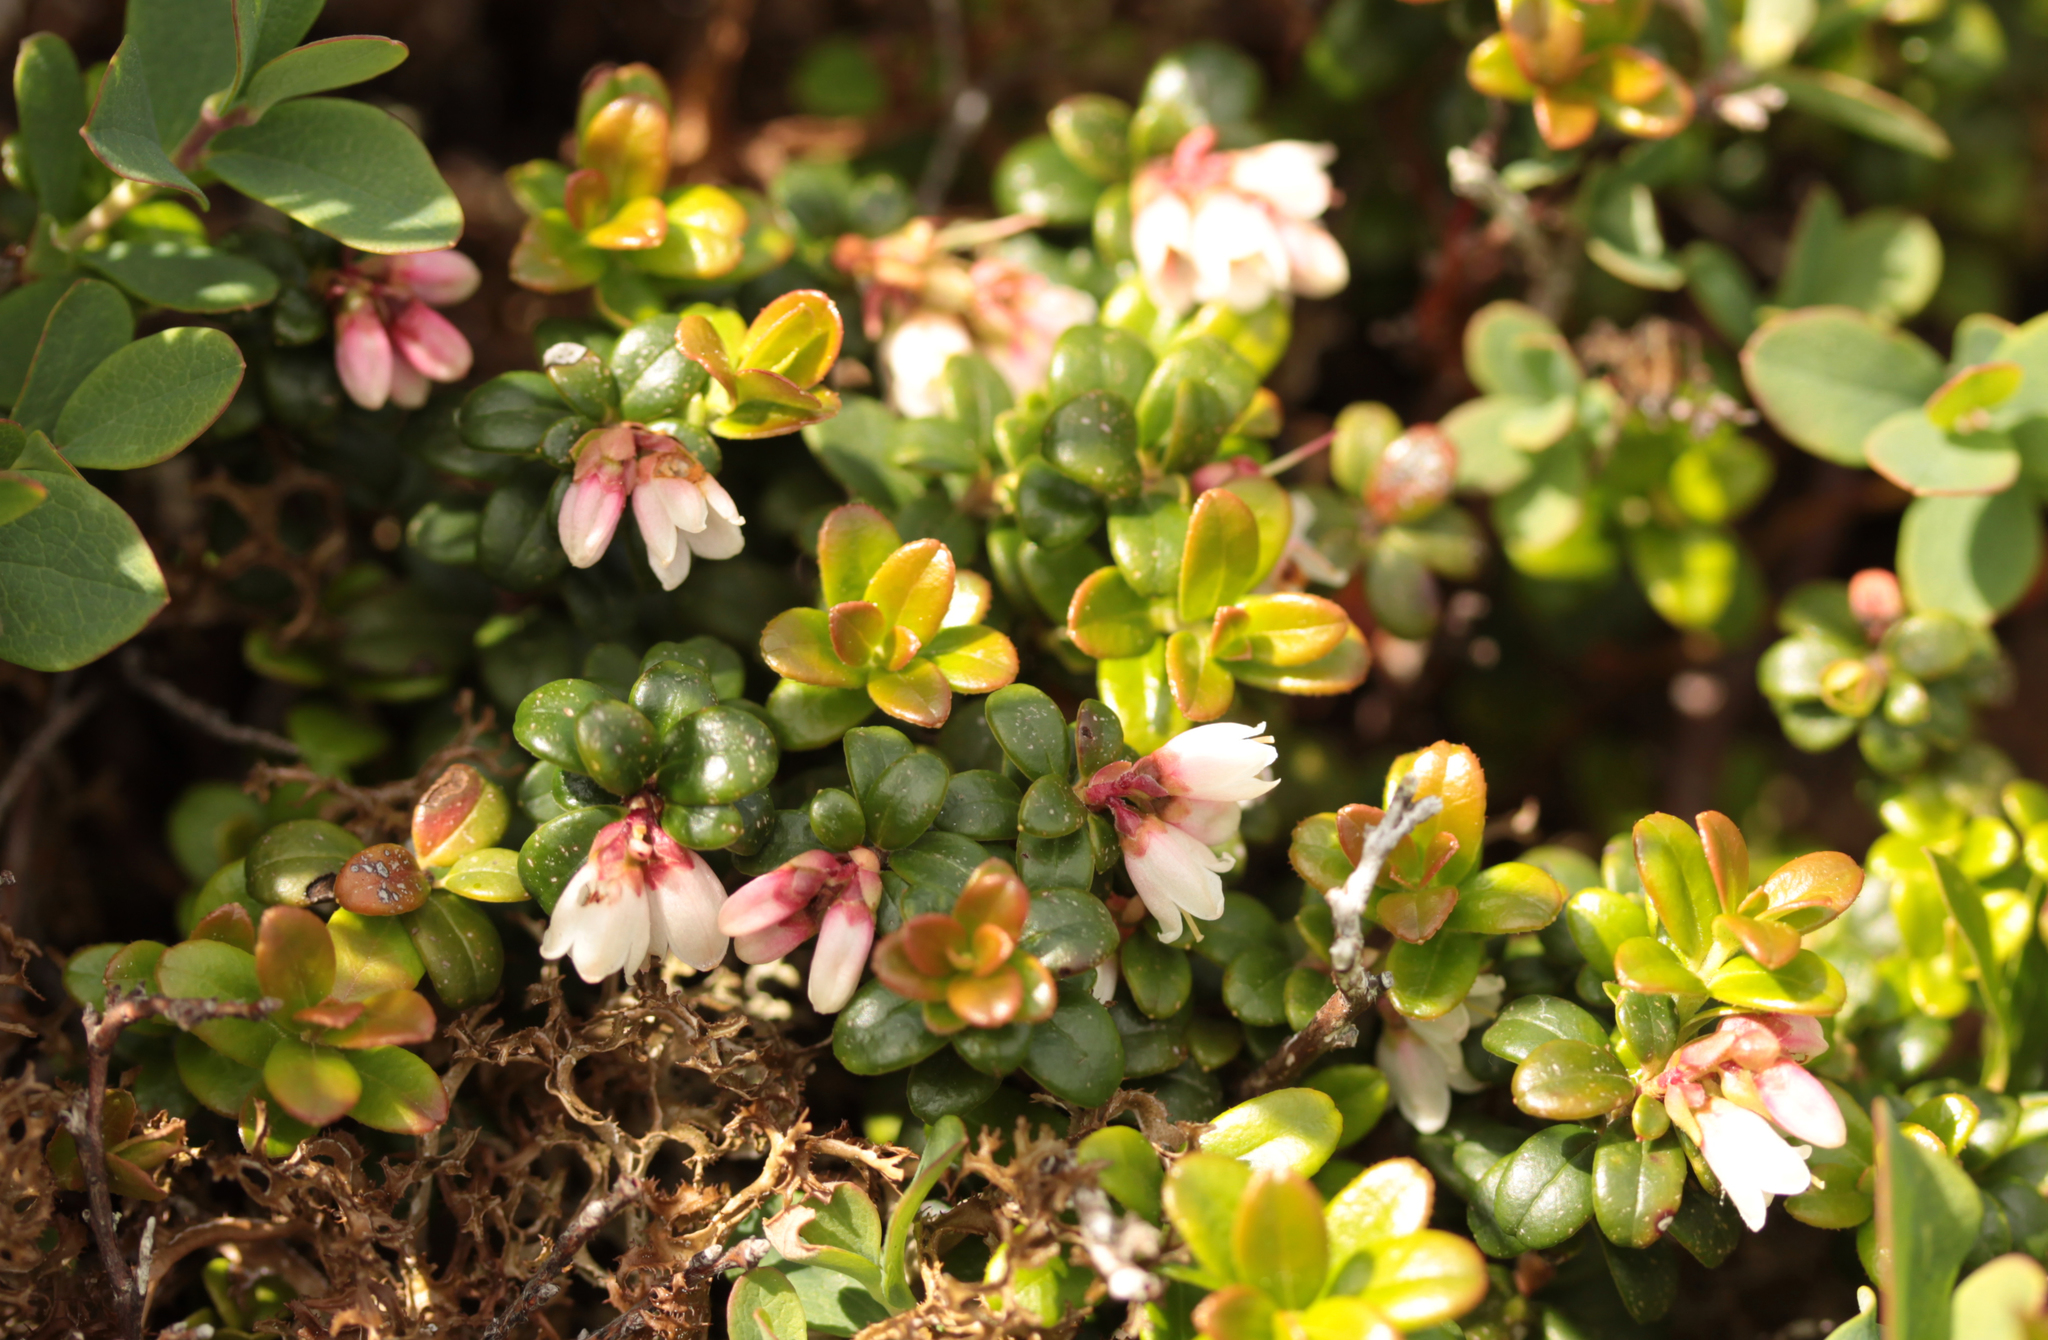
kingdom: Plantae
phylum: Tracheophyta
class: Magnoliopsida
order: Ericales
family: Ericaceae
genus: Vaccinium
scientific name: Vaccinium vitis-idaea
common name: Cowberry
